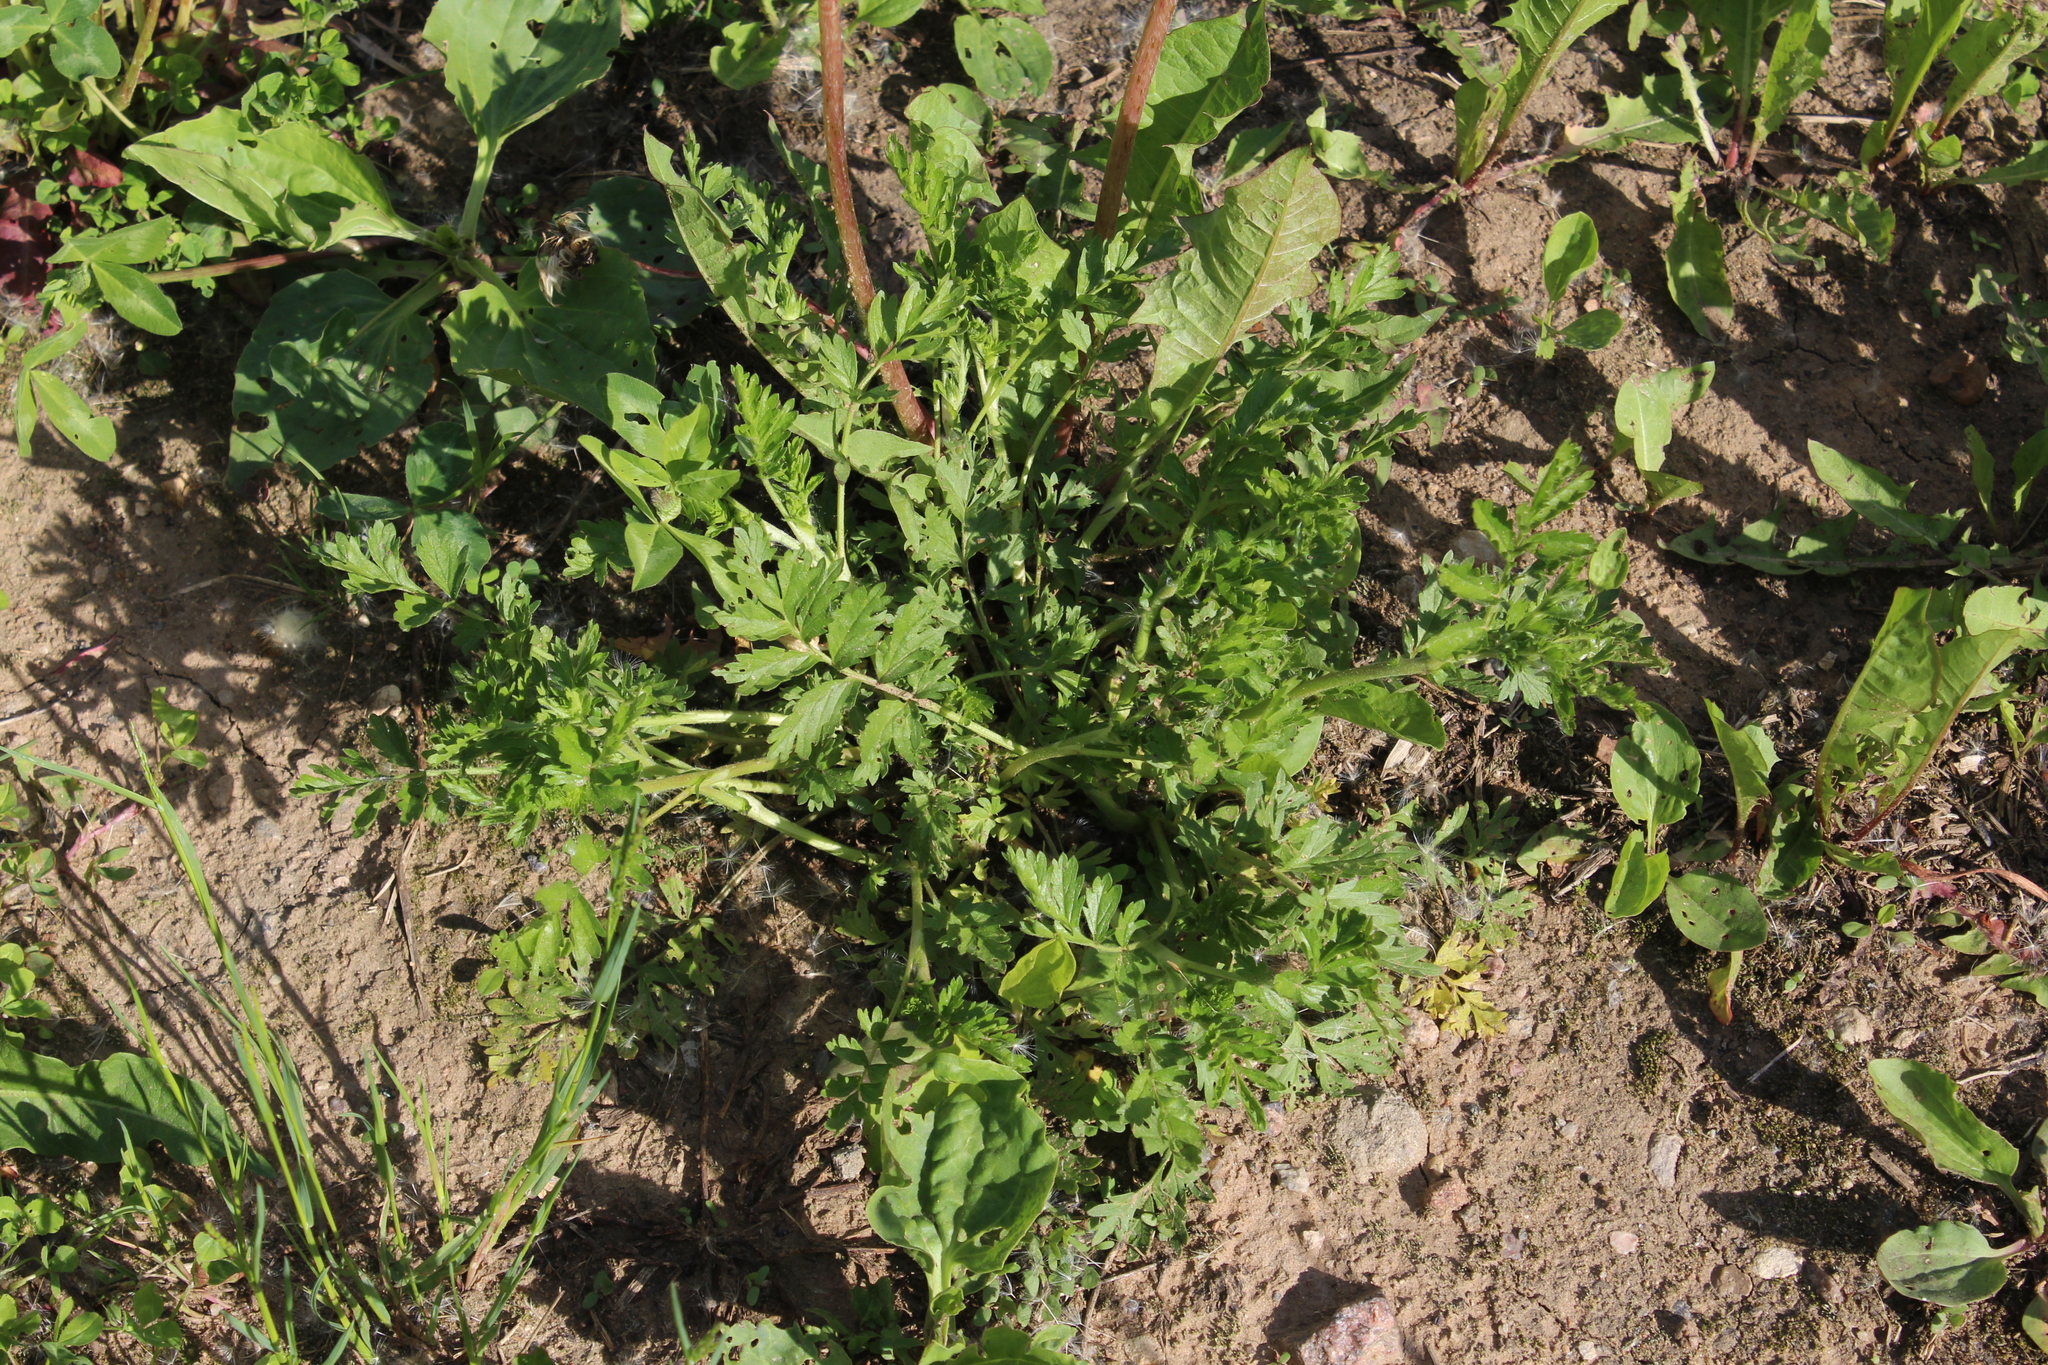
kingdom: Plantae
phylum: Tracheophyta
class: Magnoliopsida
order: Rosales
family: Rosaceae
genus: Potentilla
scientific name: Potentilla supina
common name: Prostrate cinquefoil
